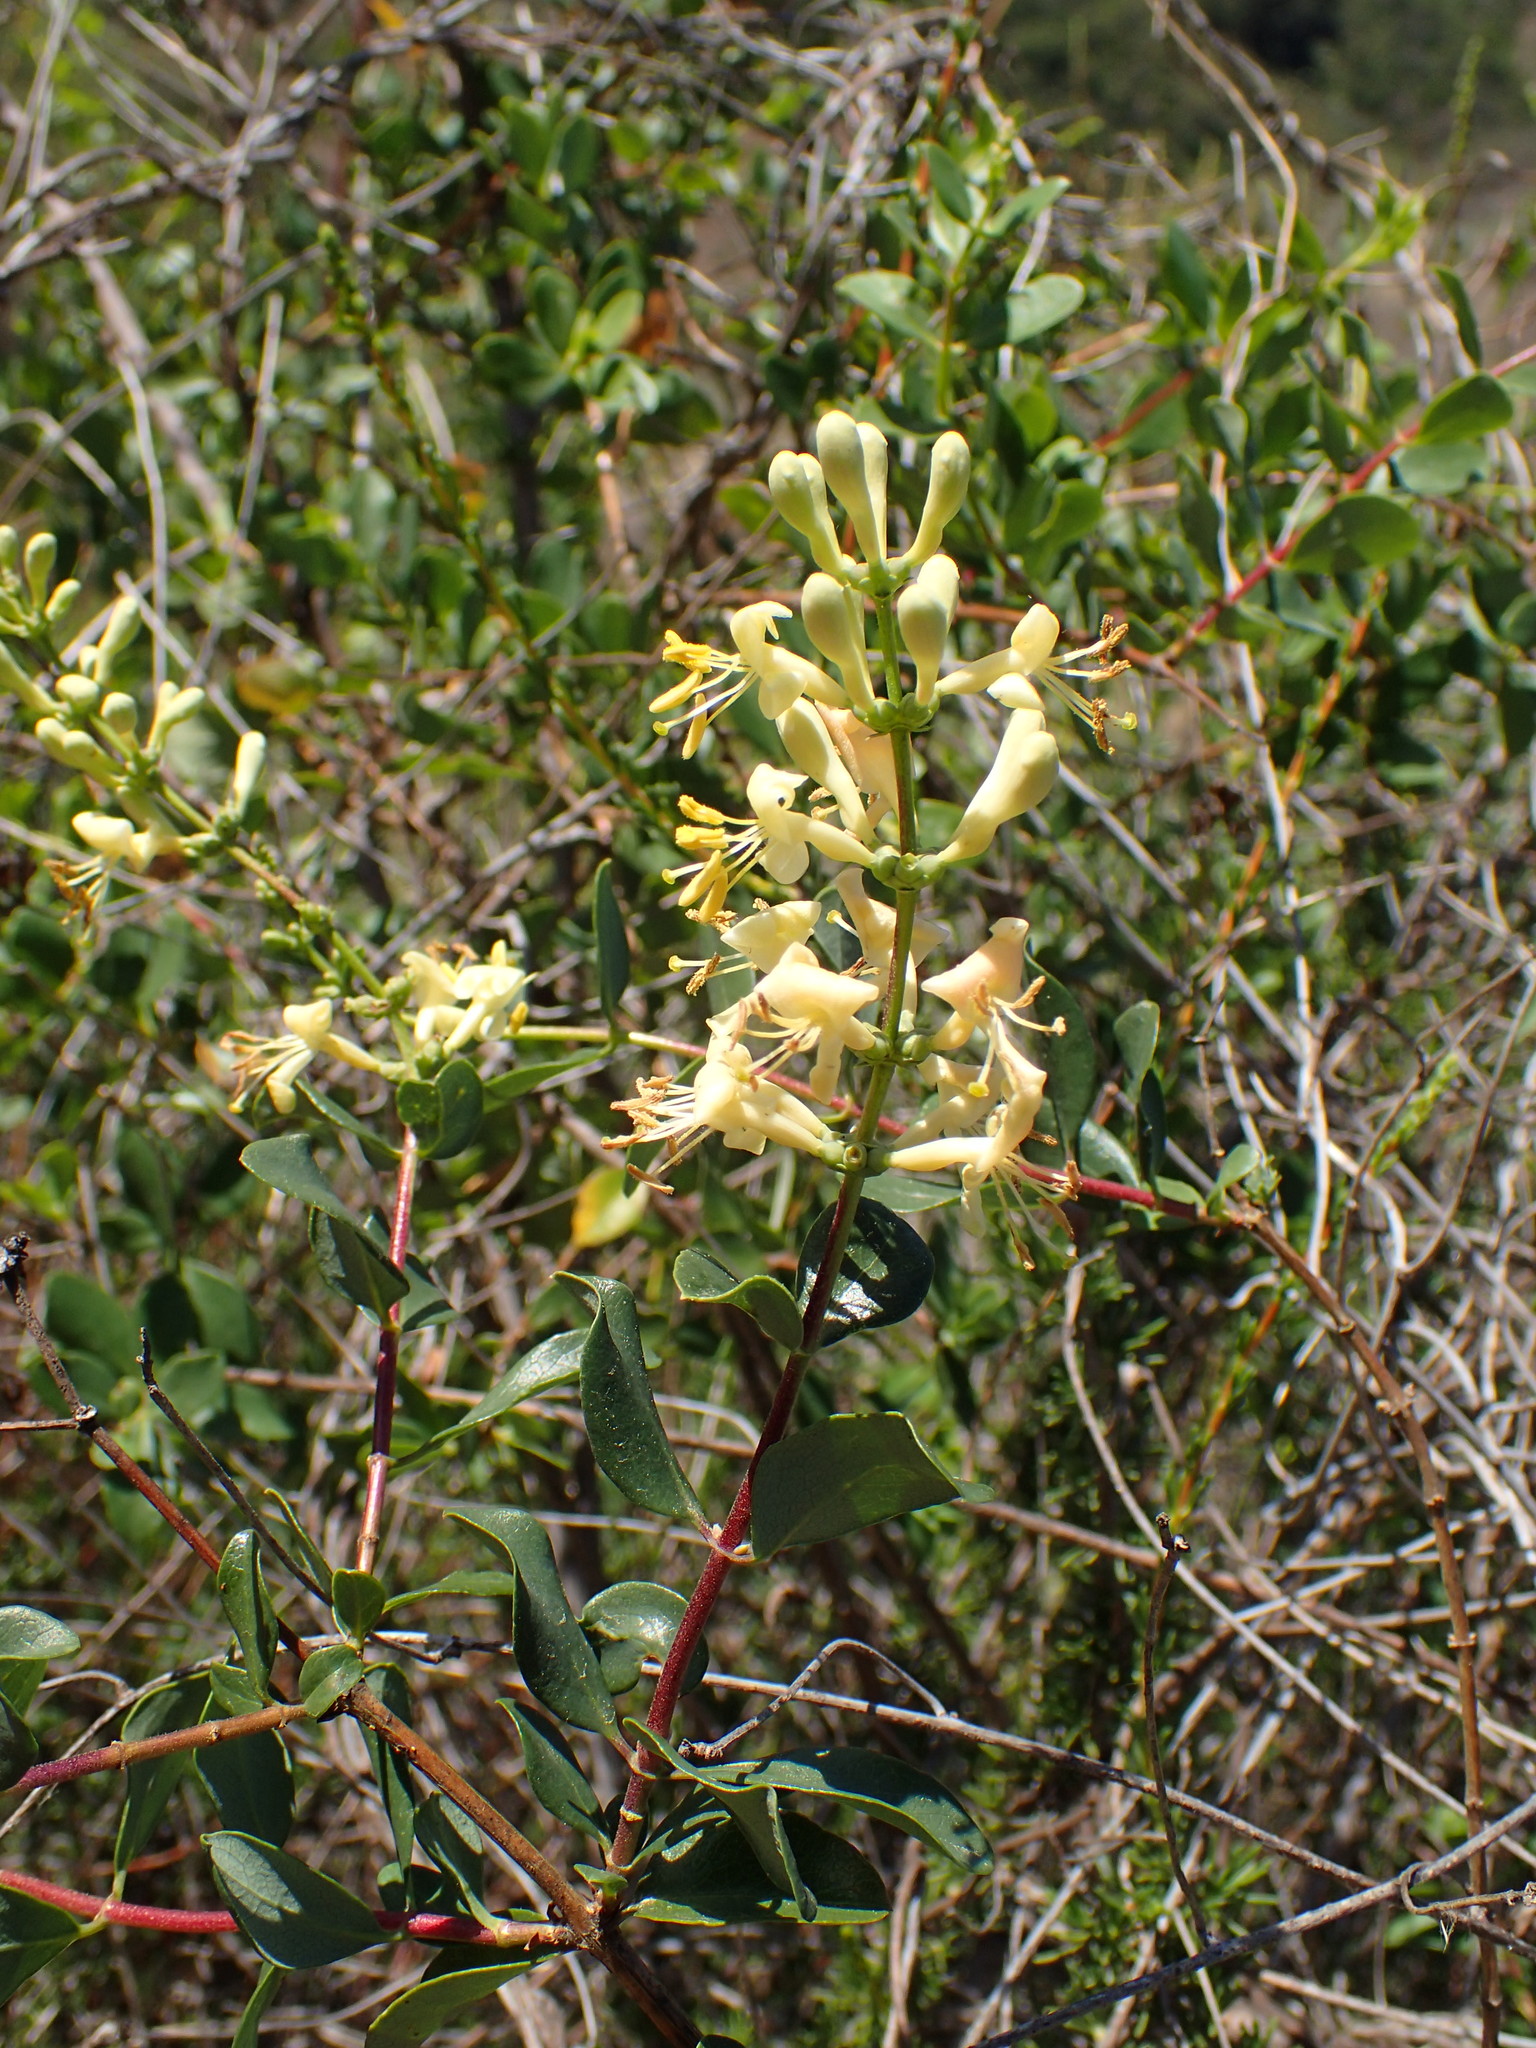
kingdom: Plantae
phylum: Tracheophyta
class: Magnoliopsida
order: Dipsacales
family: Caprifoliaceae
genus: Lonicera
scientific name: Lonicera subspicata
